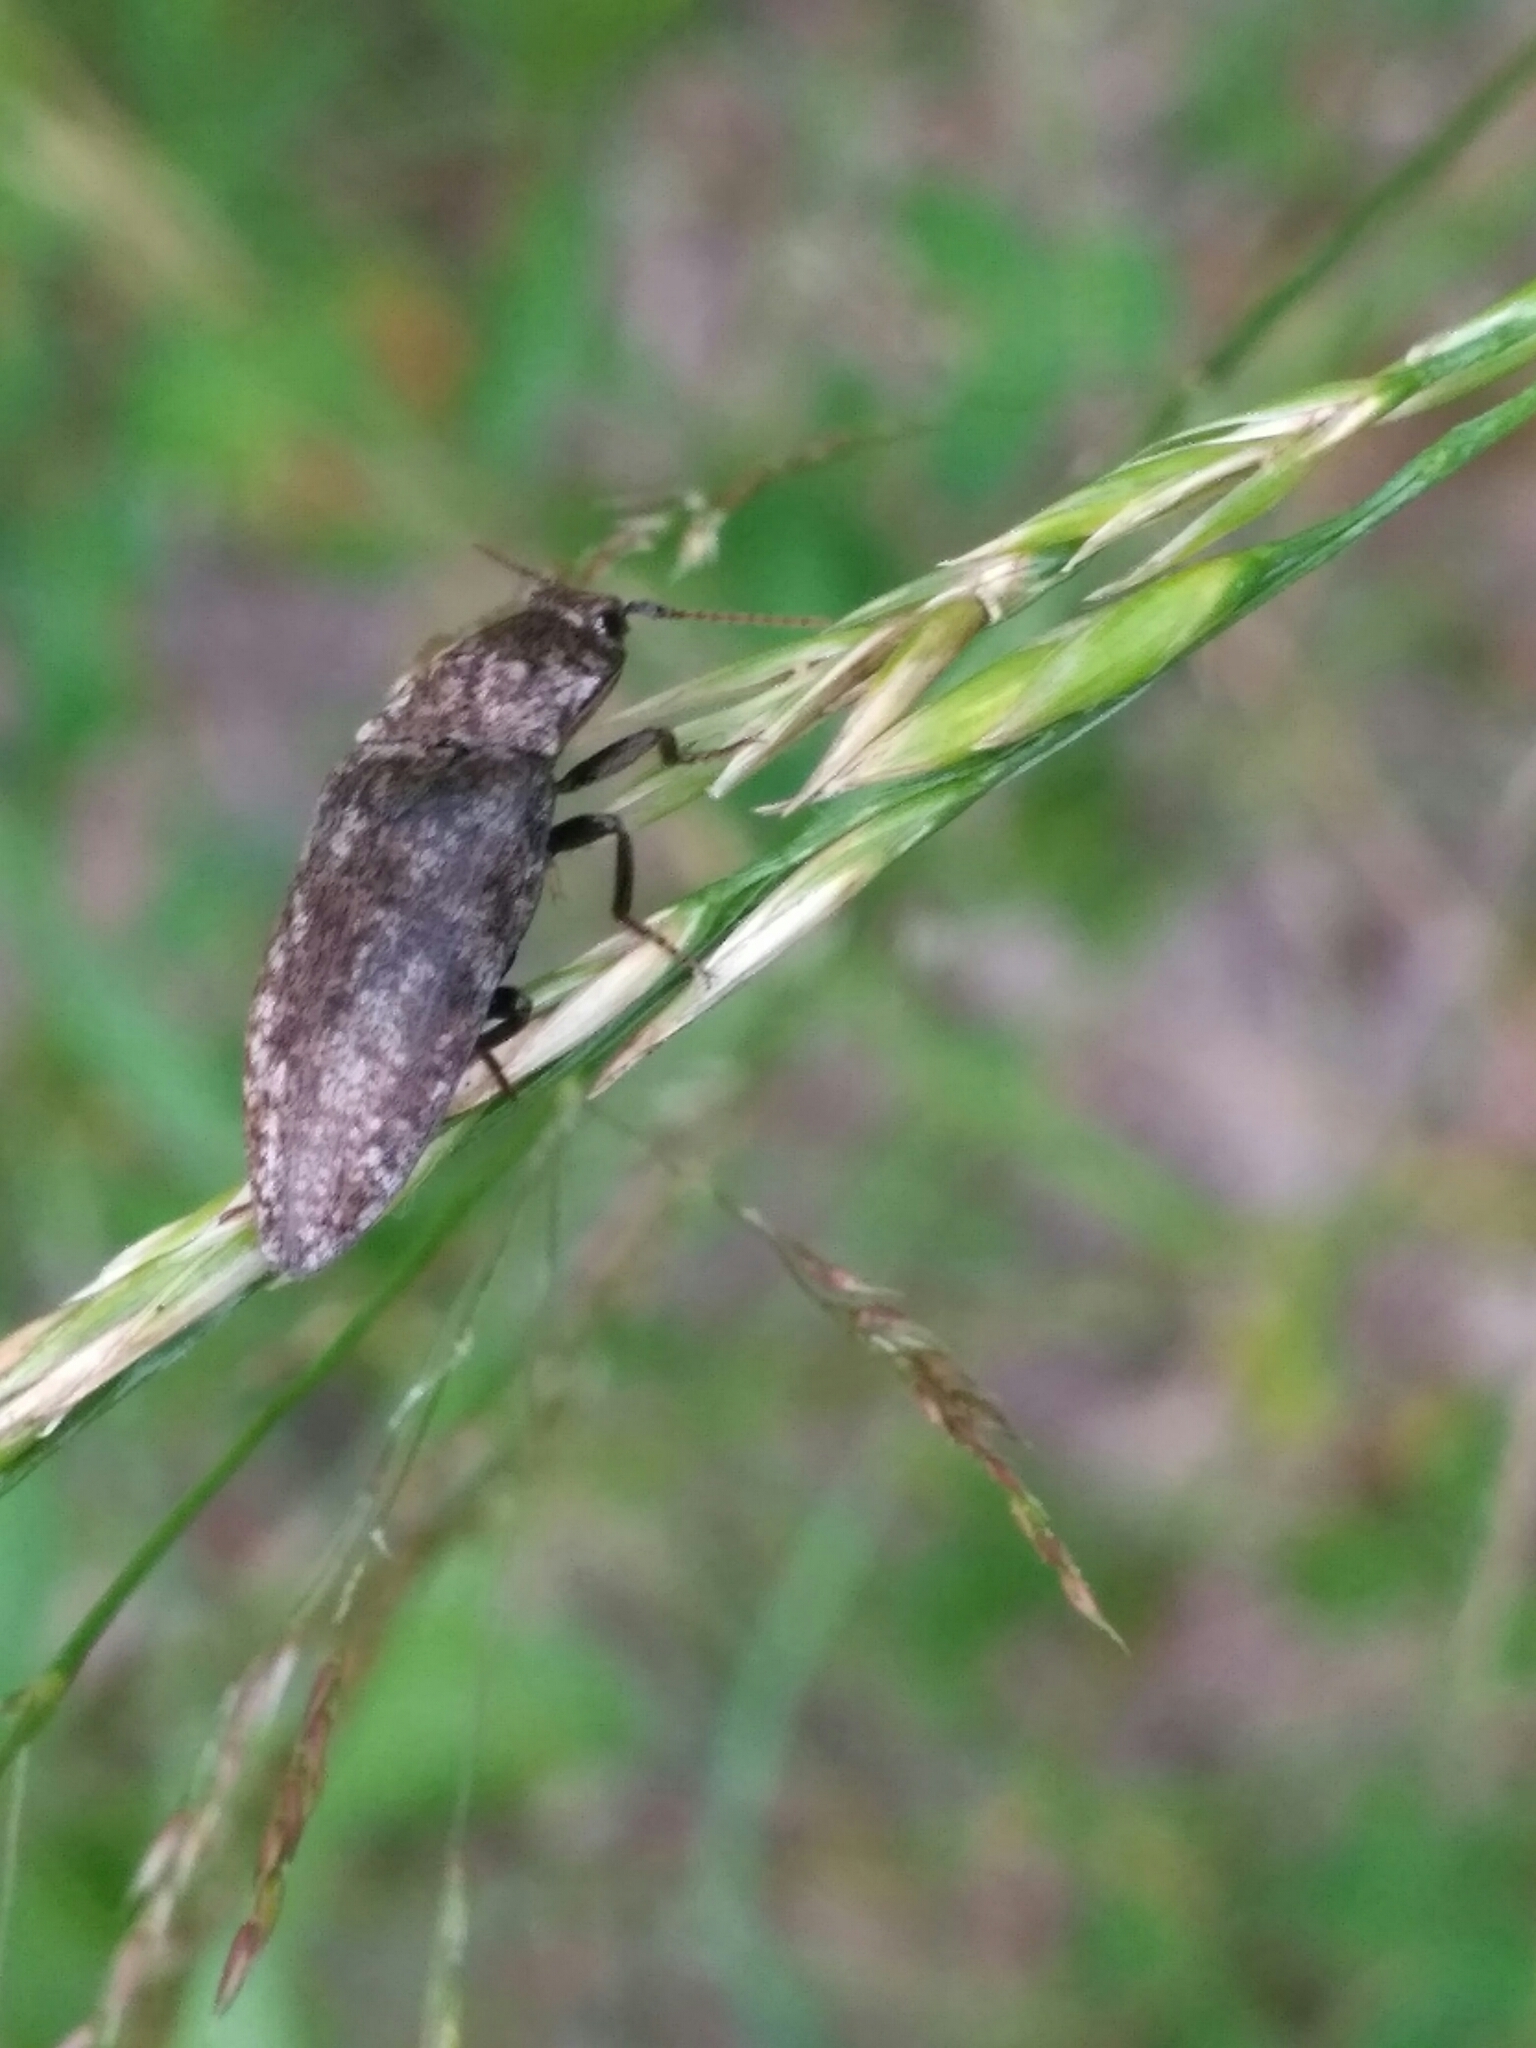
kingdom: Animalia
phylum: Arthropoda
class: Insecta
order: Coleoptera
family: Elateridae
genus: Agrypnus
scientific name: Agrypnus murinus
